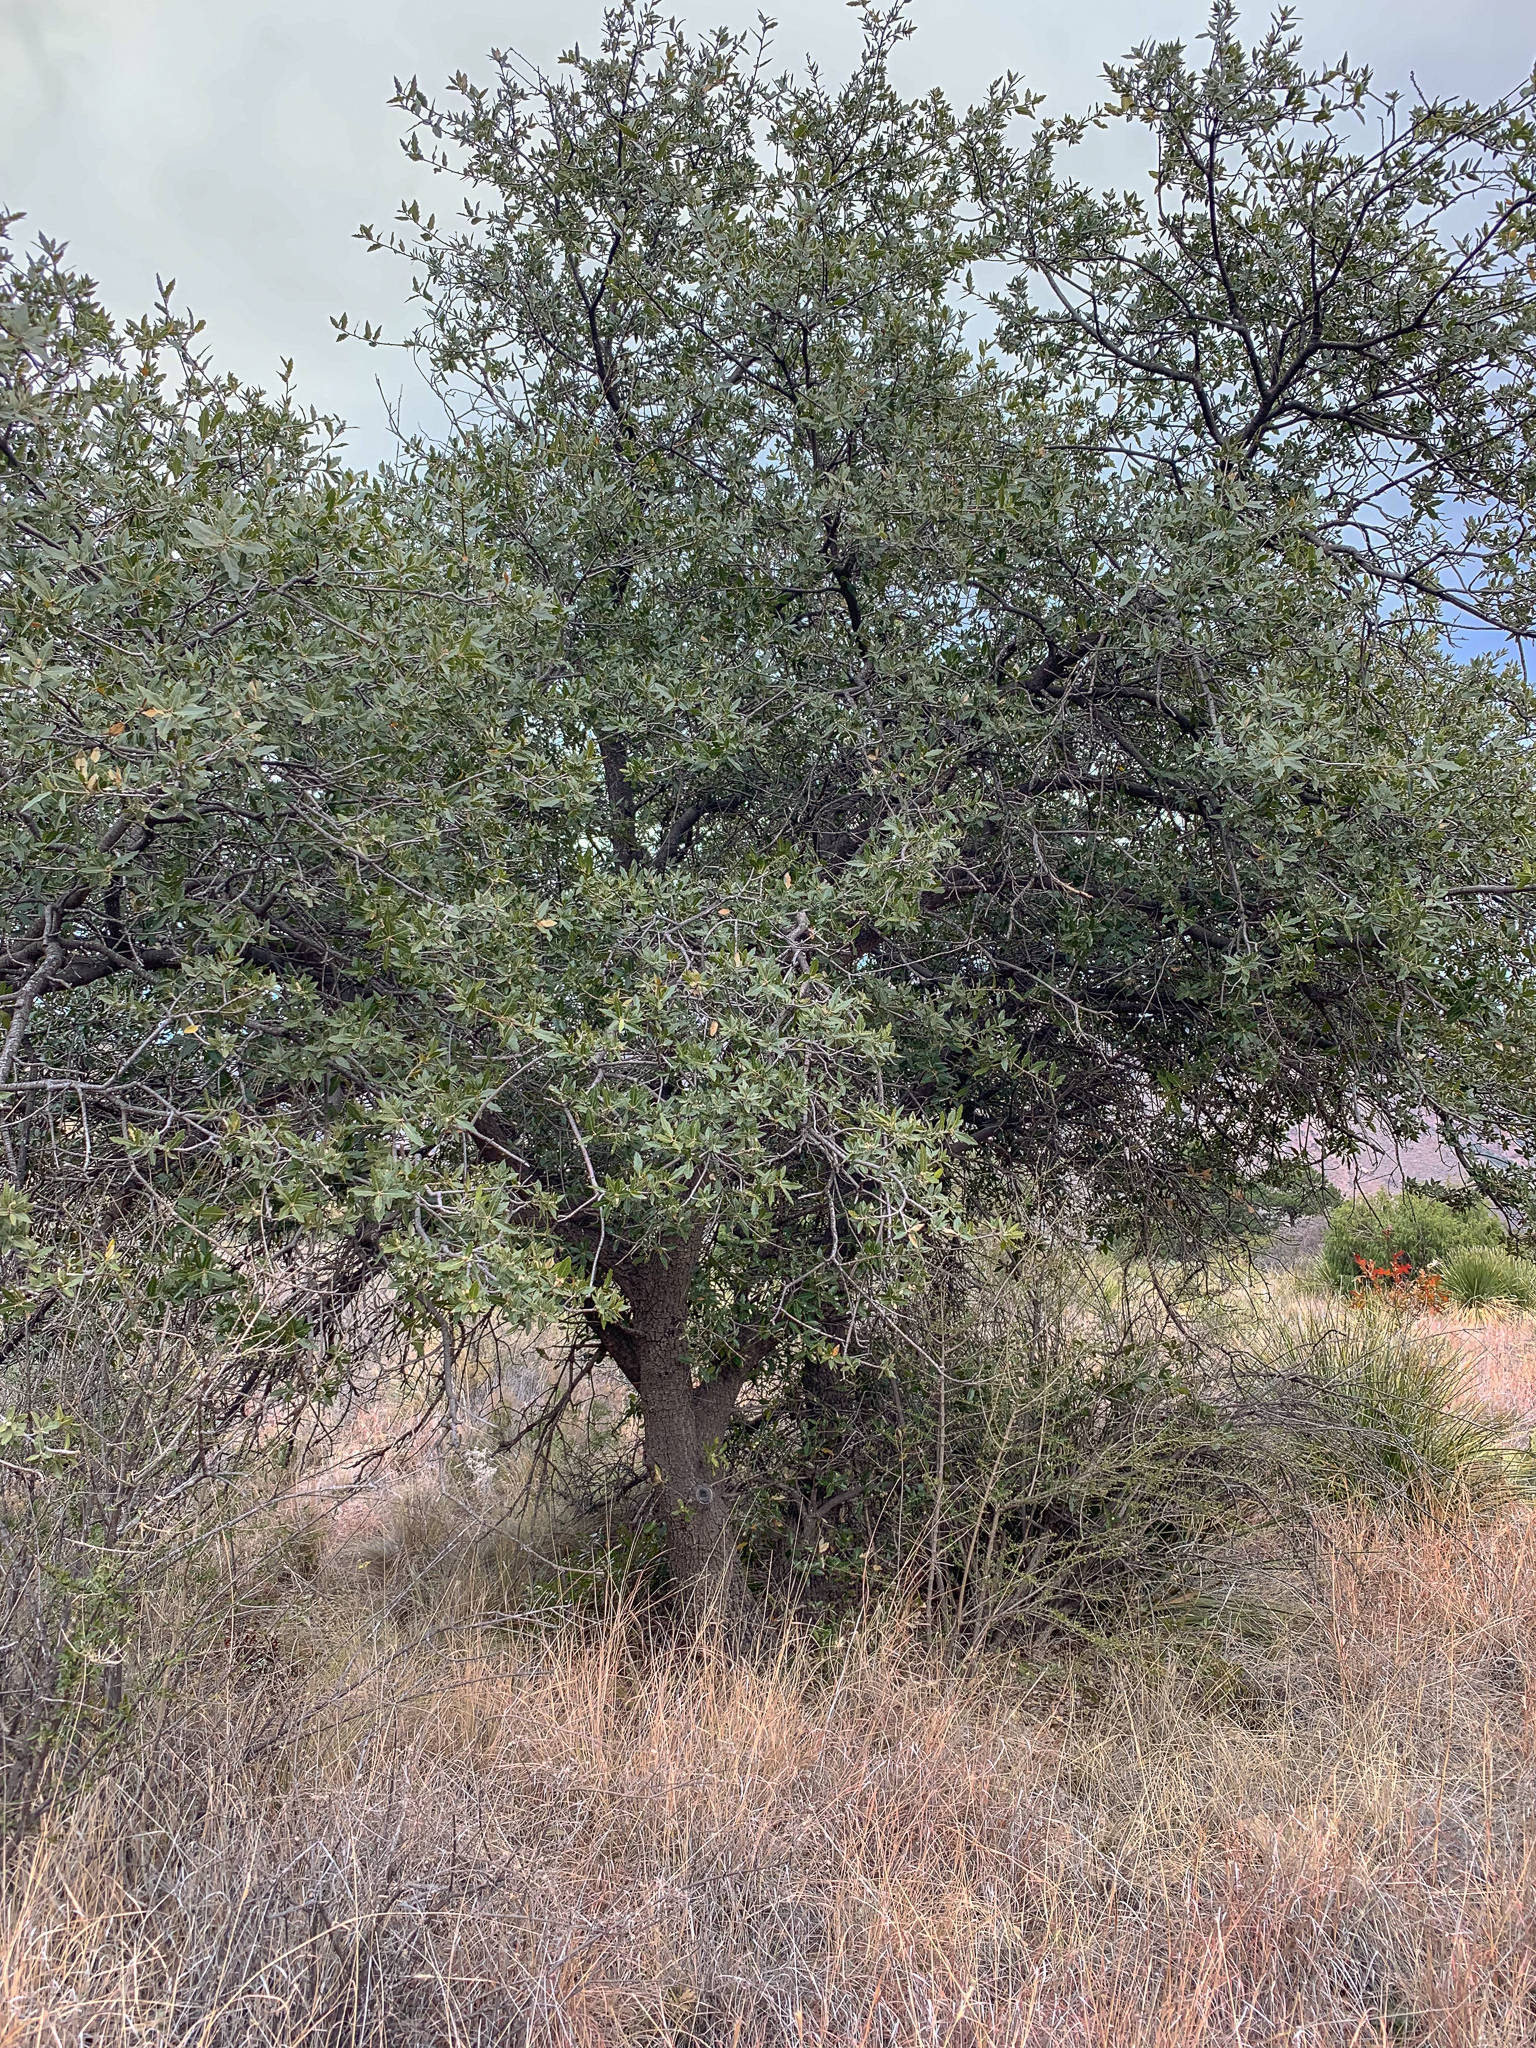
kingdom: Plantae
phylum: Tracheophyta
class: Magnoliopsida
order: Fagales
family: Fagaceae
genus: Quercus
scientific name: Quercus emoryi
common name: Emory oak
